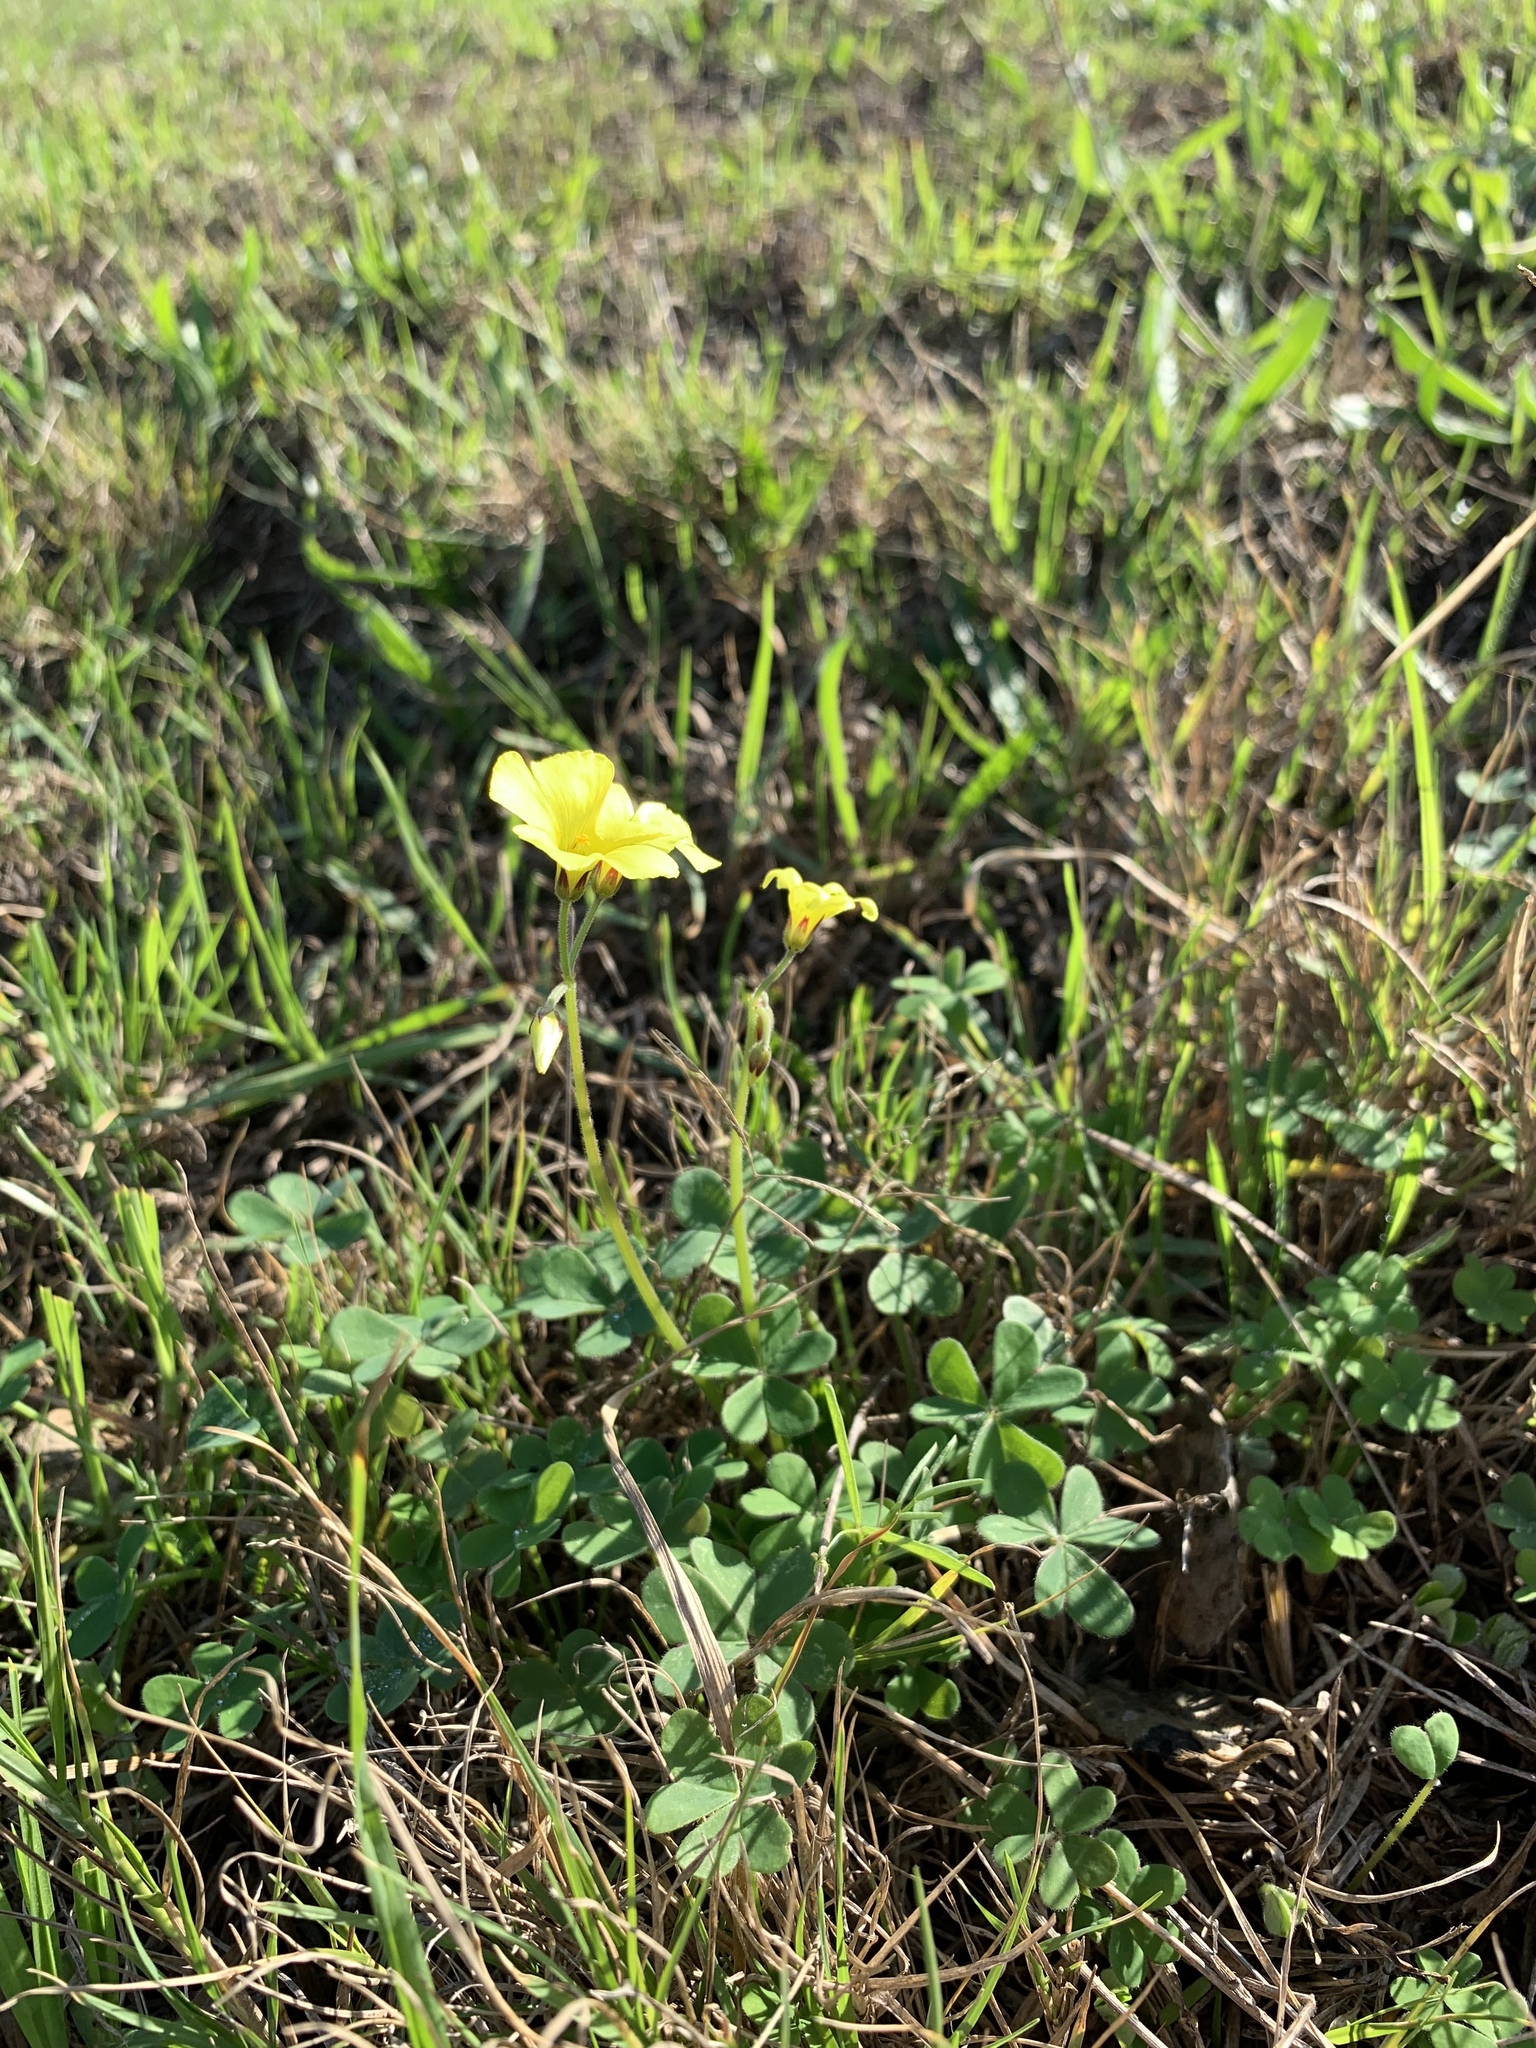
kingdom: Plantae
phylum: Tracheophyta
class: Magnoliopsida
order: Oxalidales
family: Oxalidaceae
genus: Oxalis
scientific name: Oxalis pes-caprae
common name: Bermuda-buttercup
